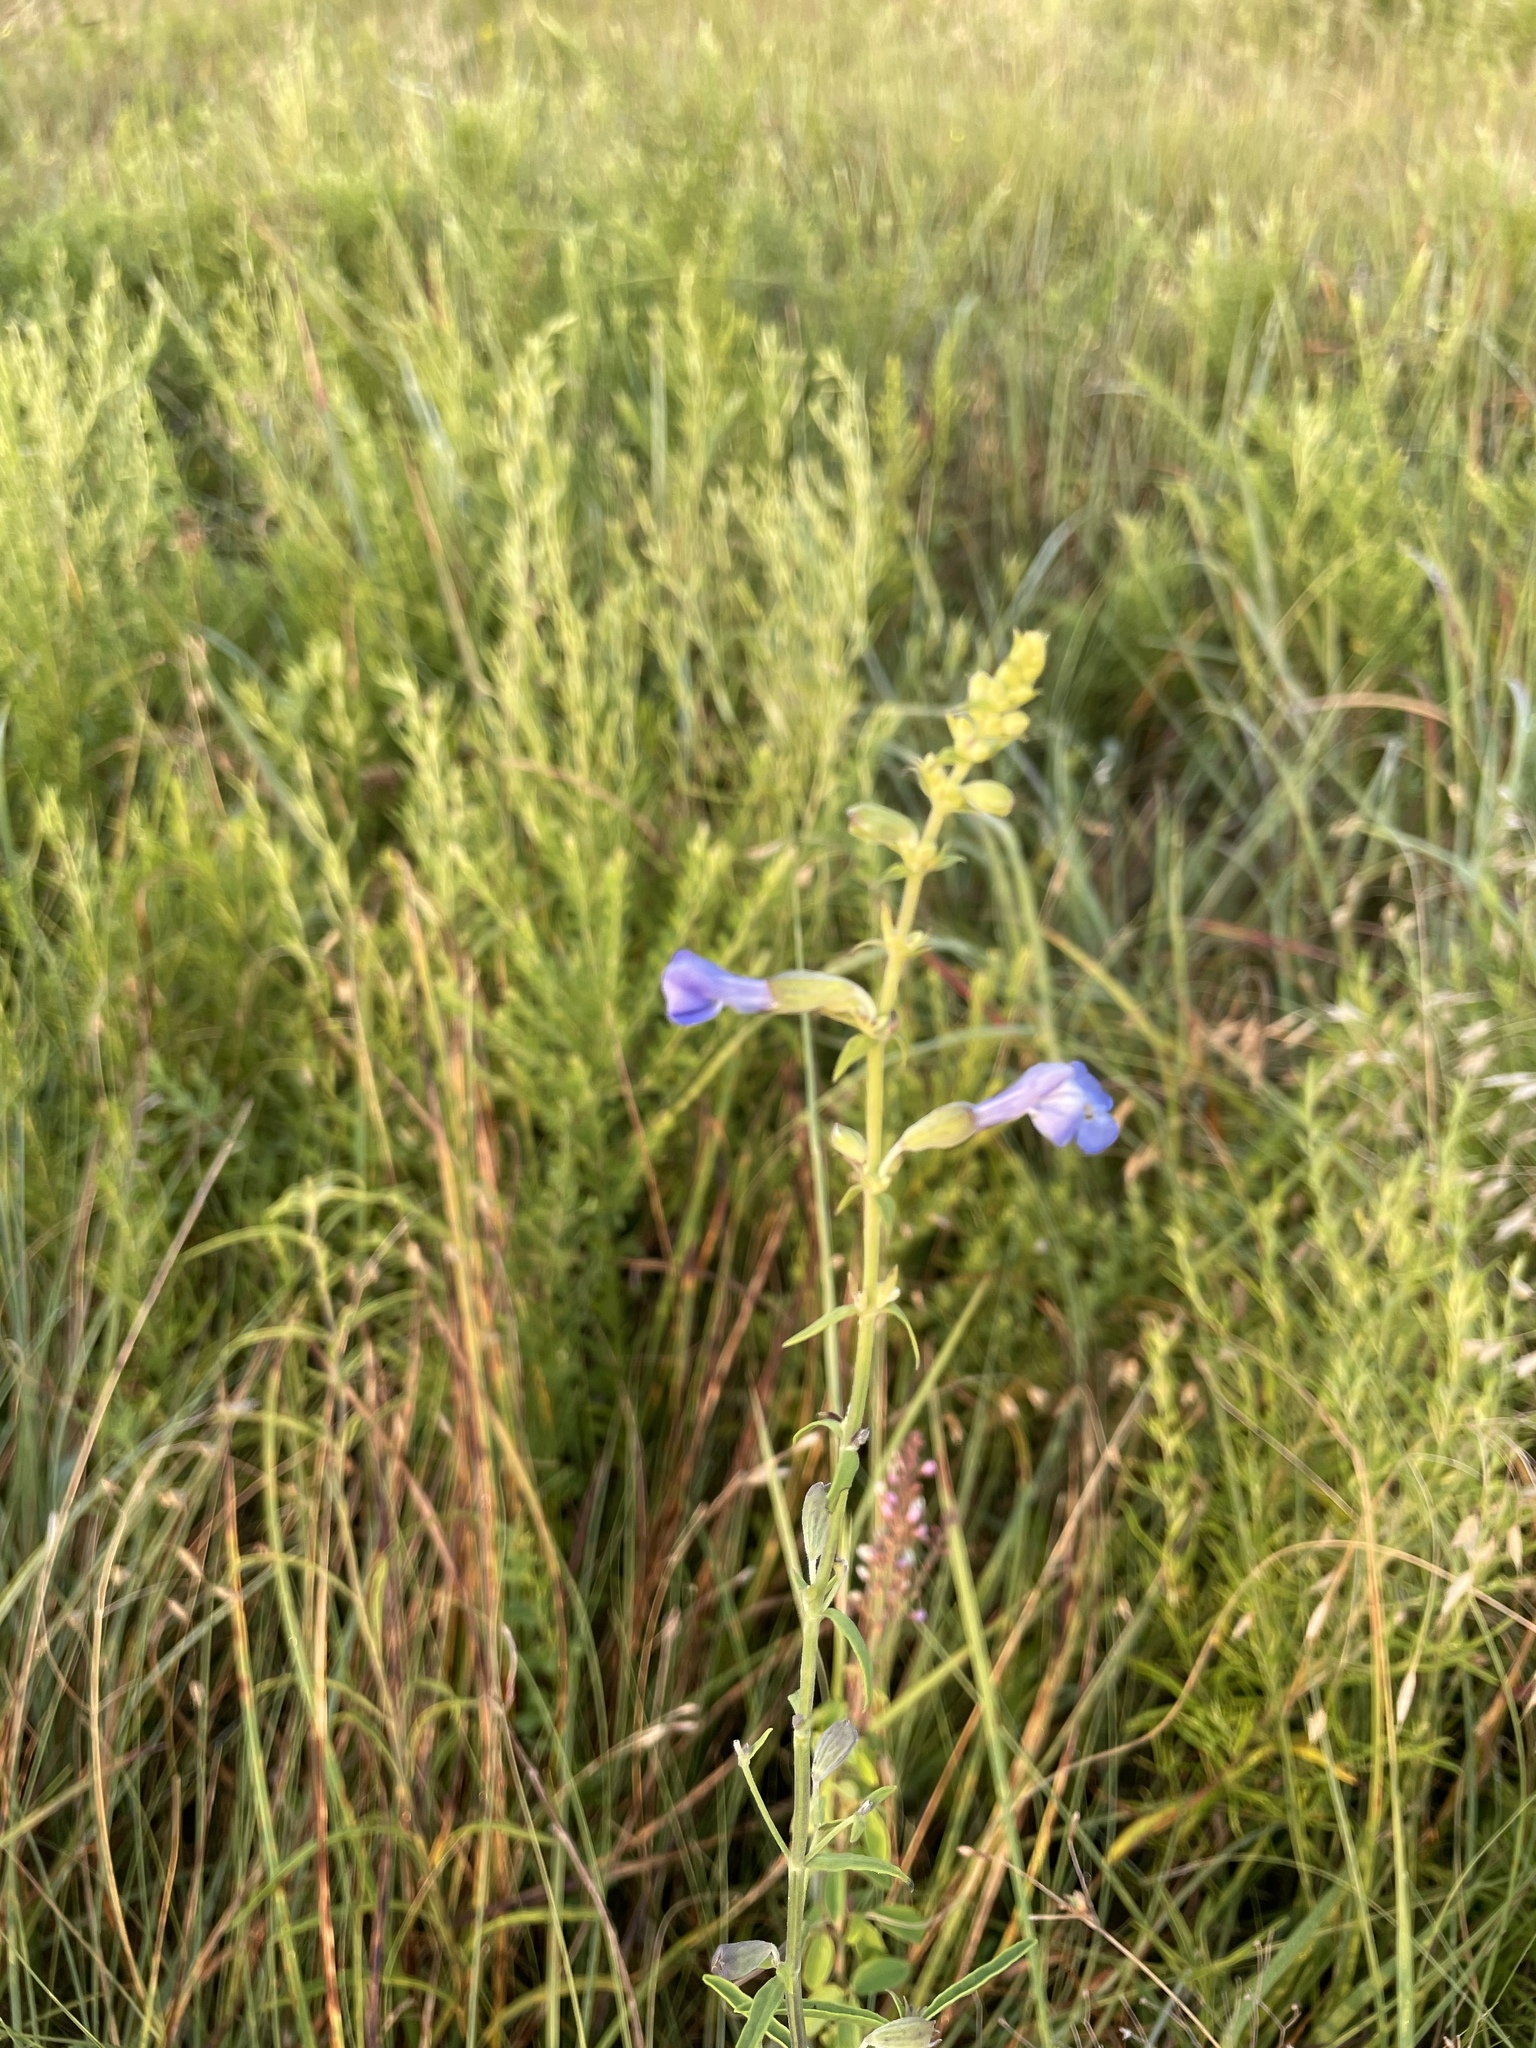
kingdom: Plantae
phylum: Tracheophyta
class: Magnoliopsida
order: Lamiales
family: Lamiaceae
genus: Salvia
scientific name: Salvia azurea
